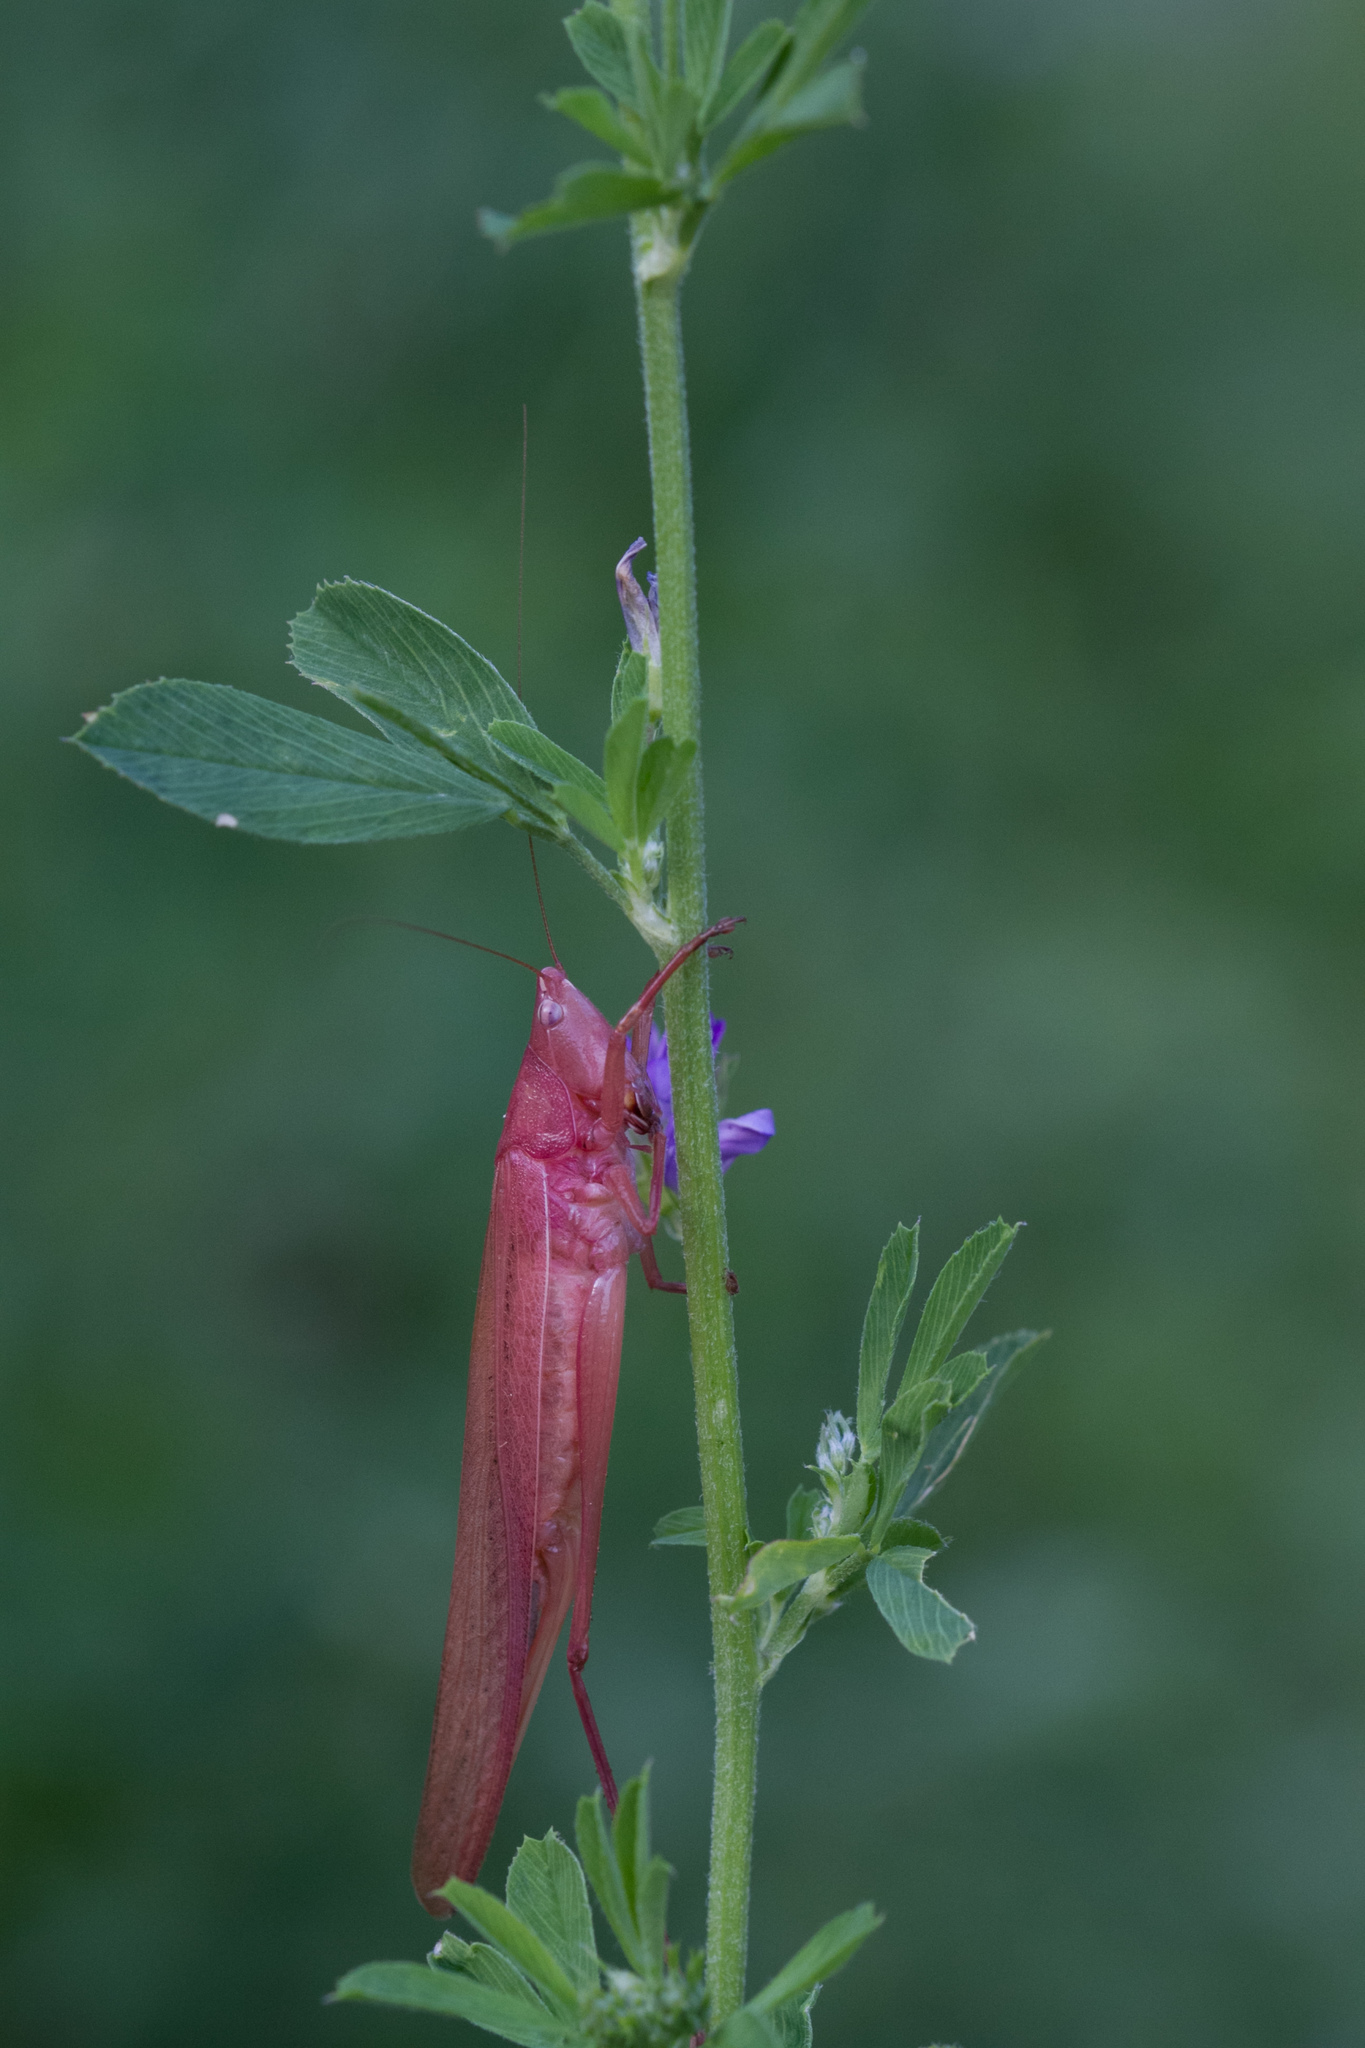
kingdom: Animalia
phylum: Arthropoda
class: Insecta
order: Orthoptera
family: Tettigoniidae
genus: Ruspolia
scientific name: Ruspolia nitidula
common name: Large conehead
